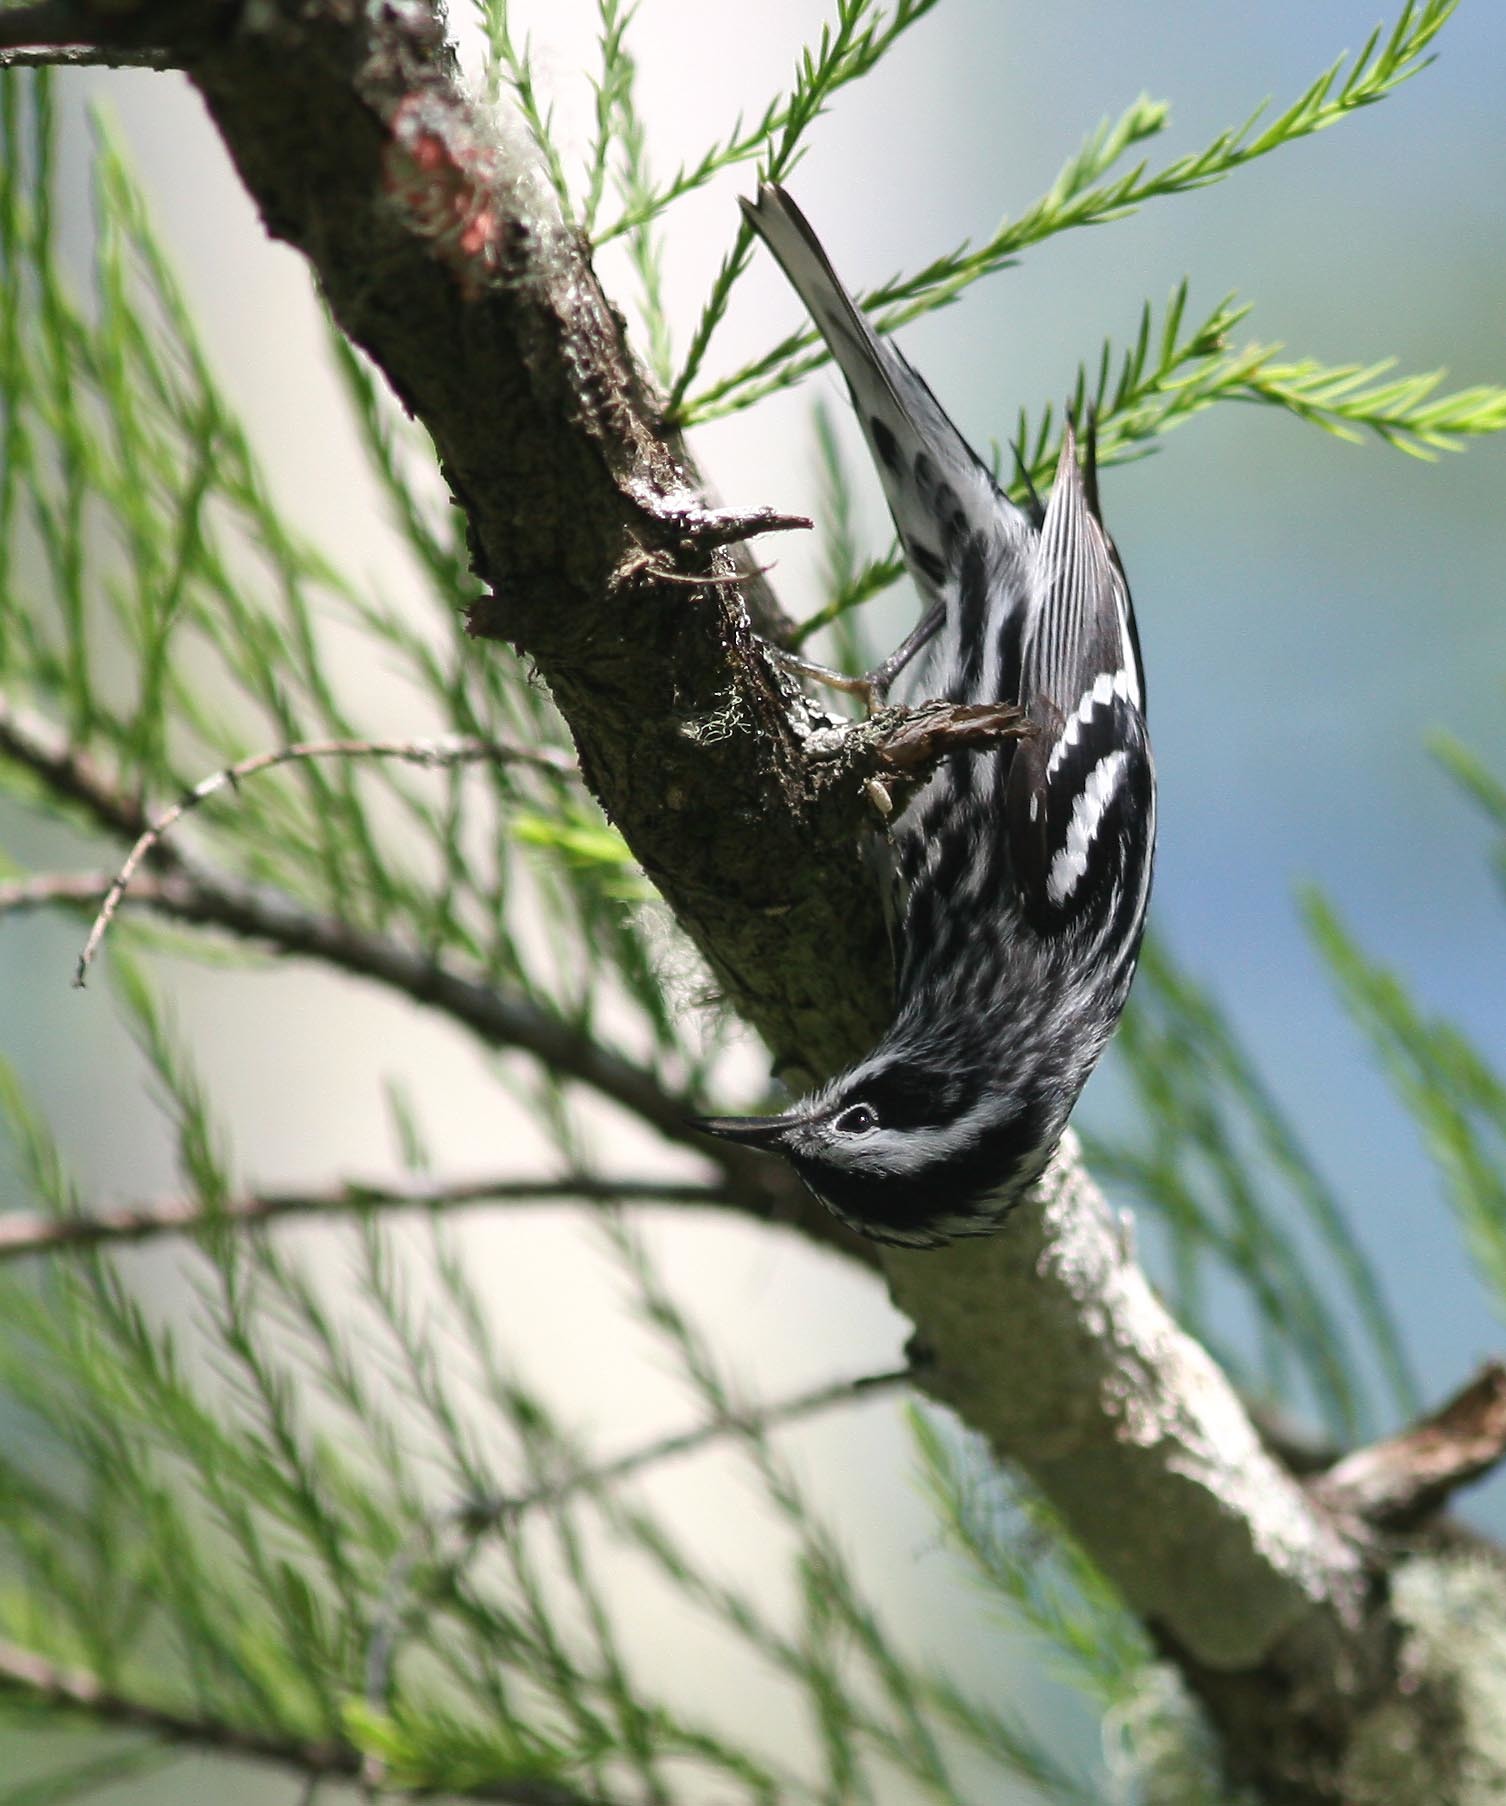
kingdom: Animalia
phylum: Chordata
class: Aves
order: Passeriformes
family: Parulidae
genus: Mniotilta
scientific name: Mniotilta varia
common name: Black-and-white warbler
